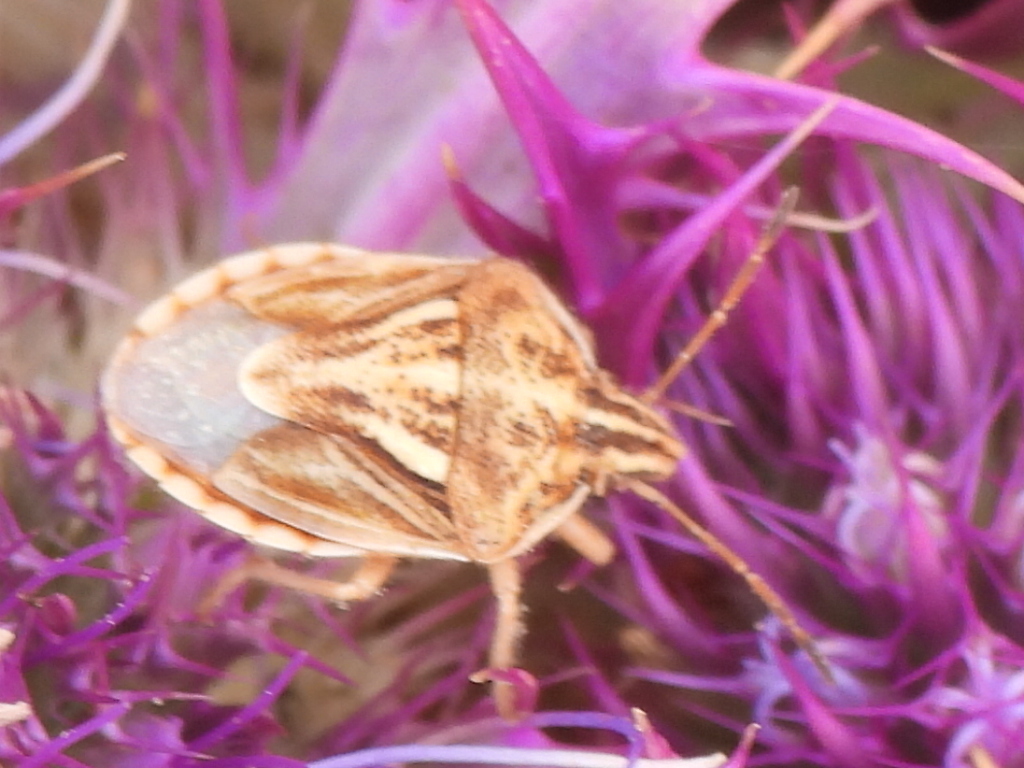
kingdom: Animalia
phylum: Arthropoda
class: Insecta
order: Hemiptera
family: Pentatomidae
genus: Trichopepla
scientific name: Trichopepla semivittata
